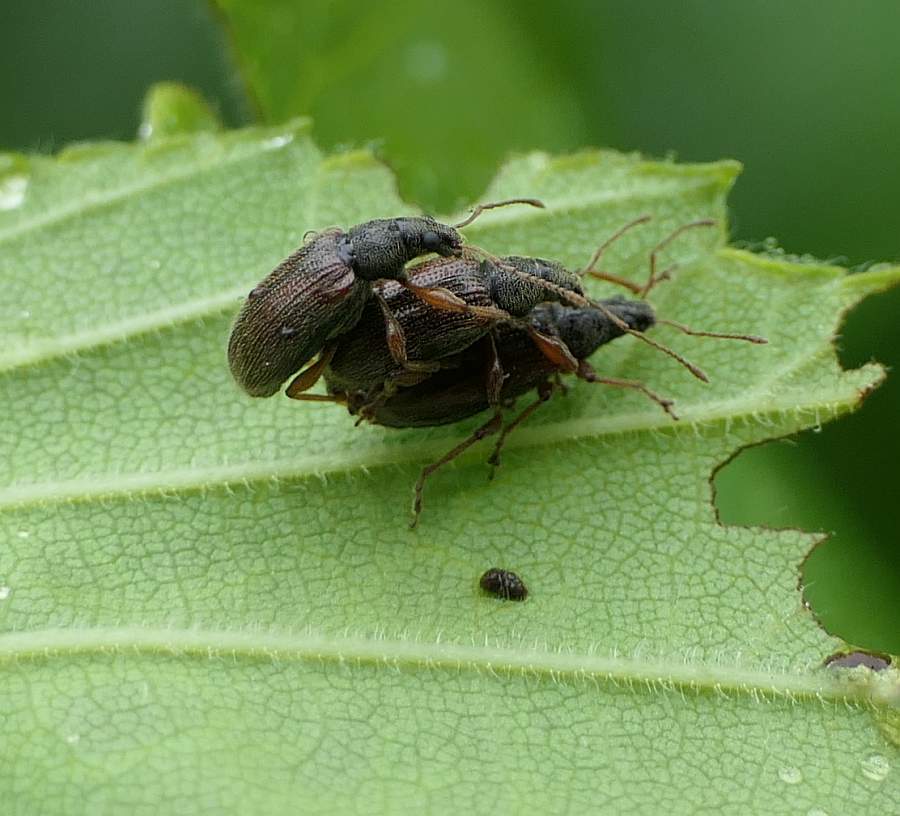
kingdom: Animalia
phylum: Arthropoda
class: Insecta
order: Coleoptera
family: Curculionidae
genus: Phyllobius
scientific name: Phyllobius oblongus
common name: Brown leaf weevil
